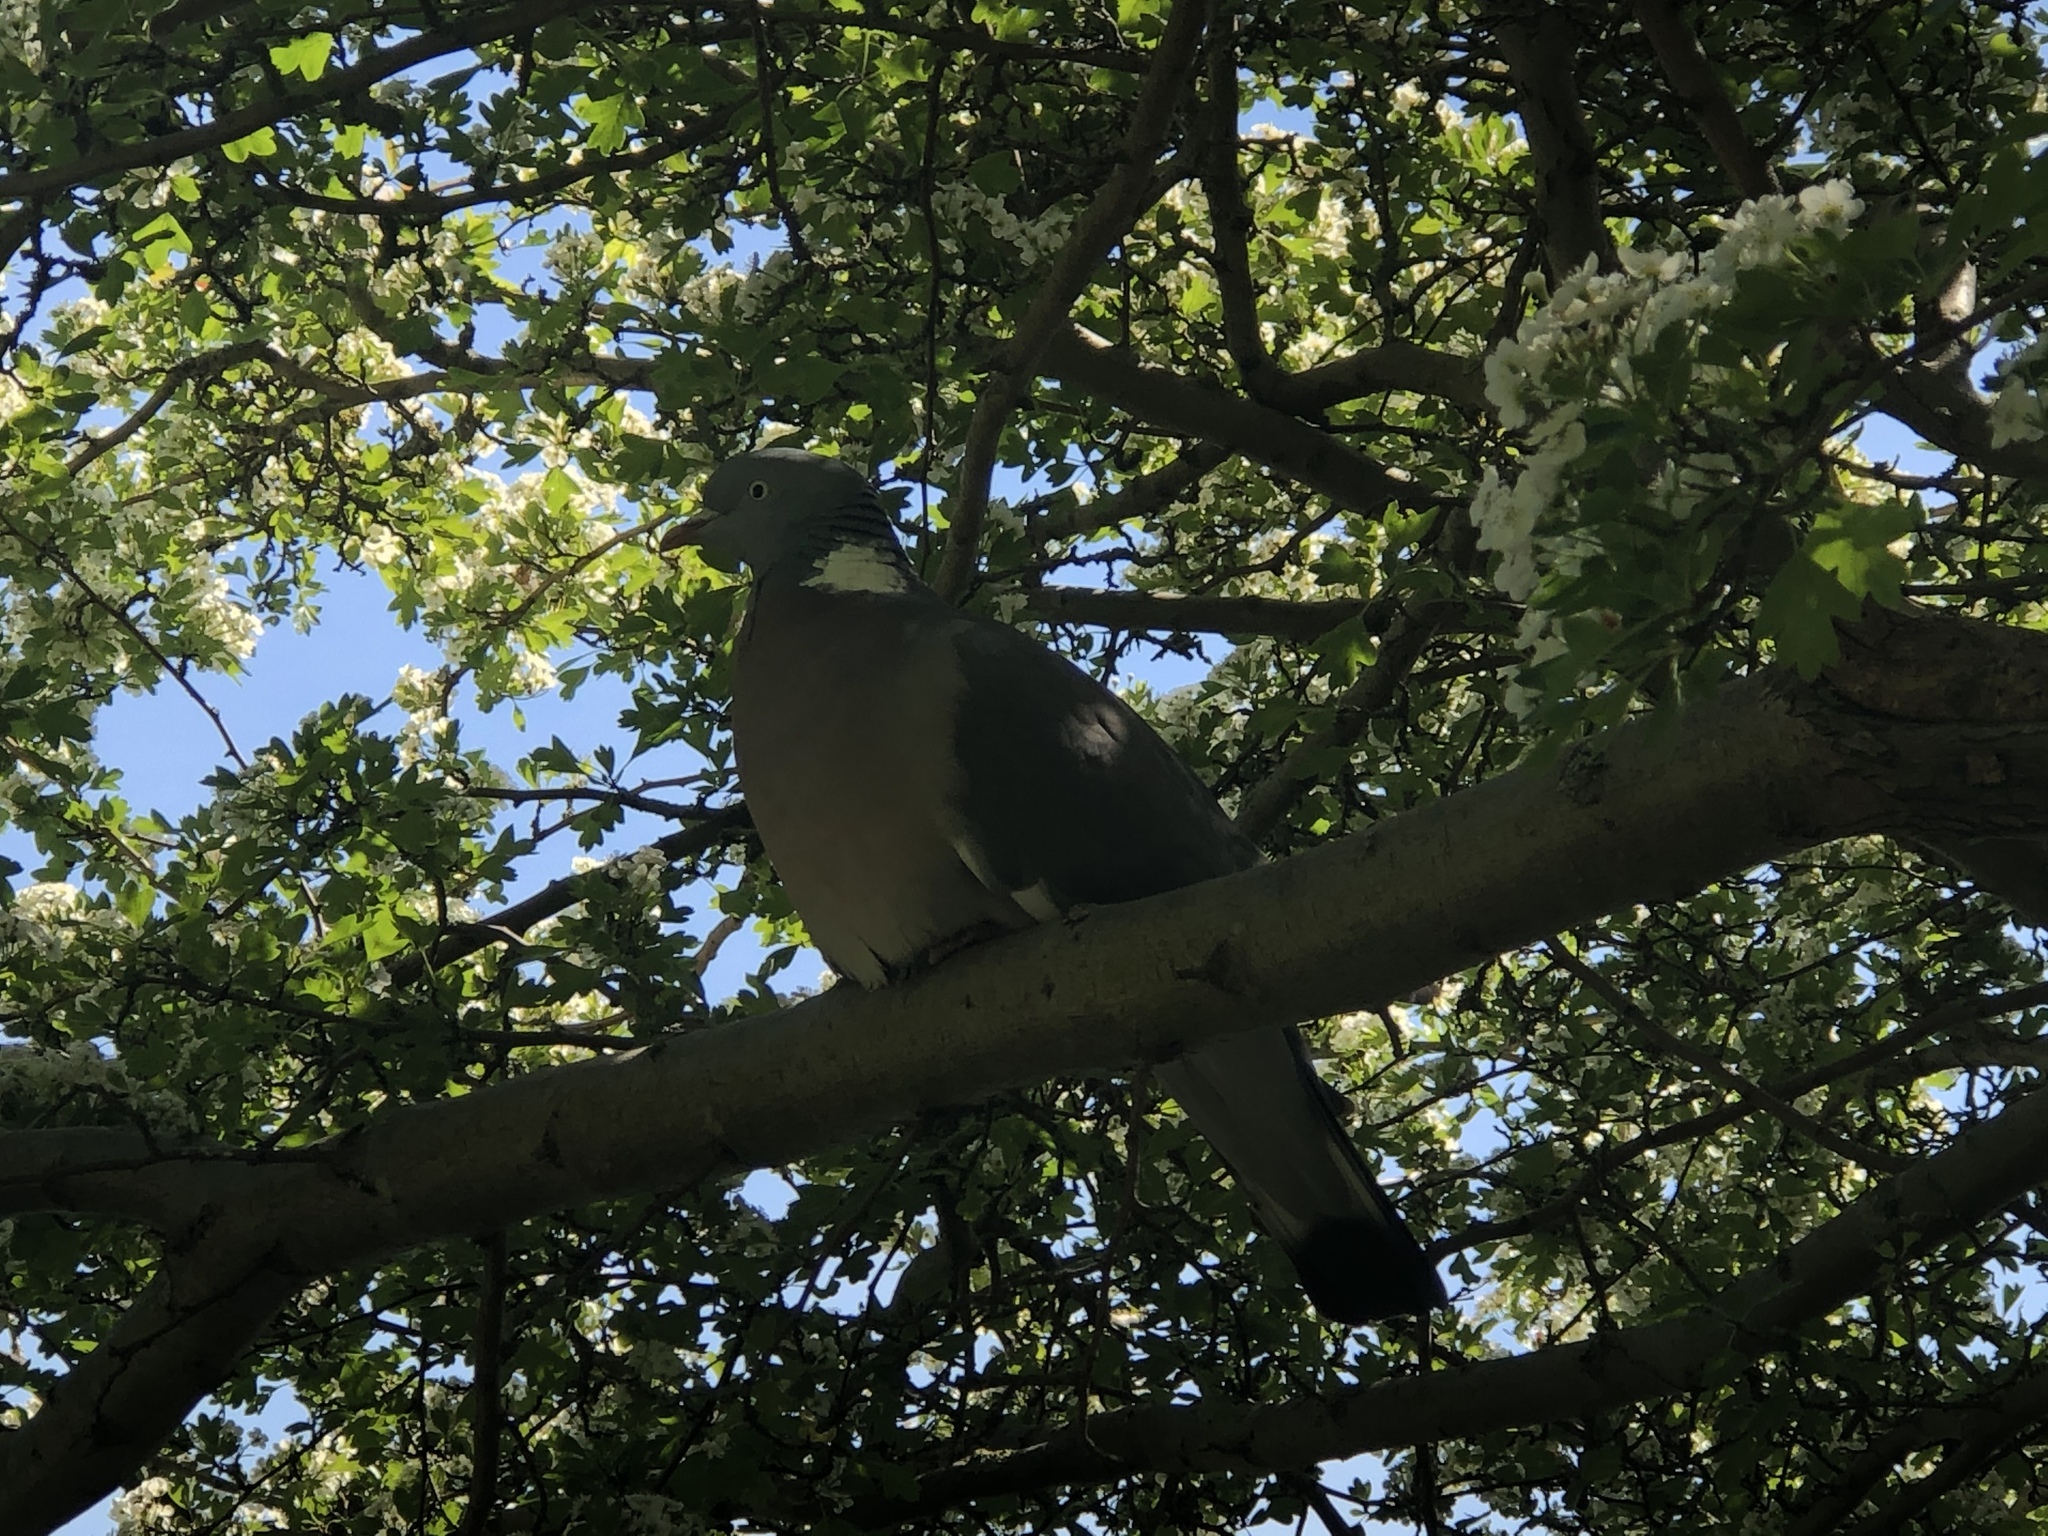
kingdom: Animalia
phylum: Chordata
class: Aves
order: Columbiformes
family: Columbidae
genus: Columba
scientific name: Columba palumbus
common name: Common wood pigeon
